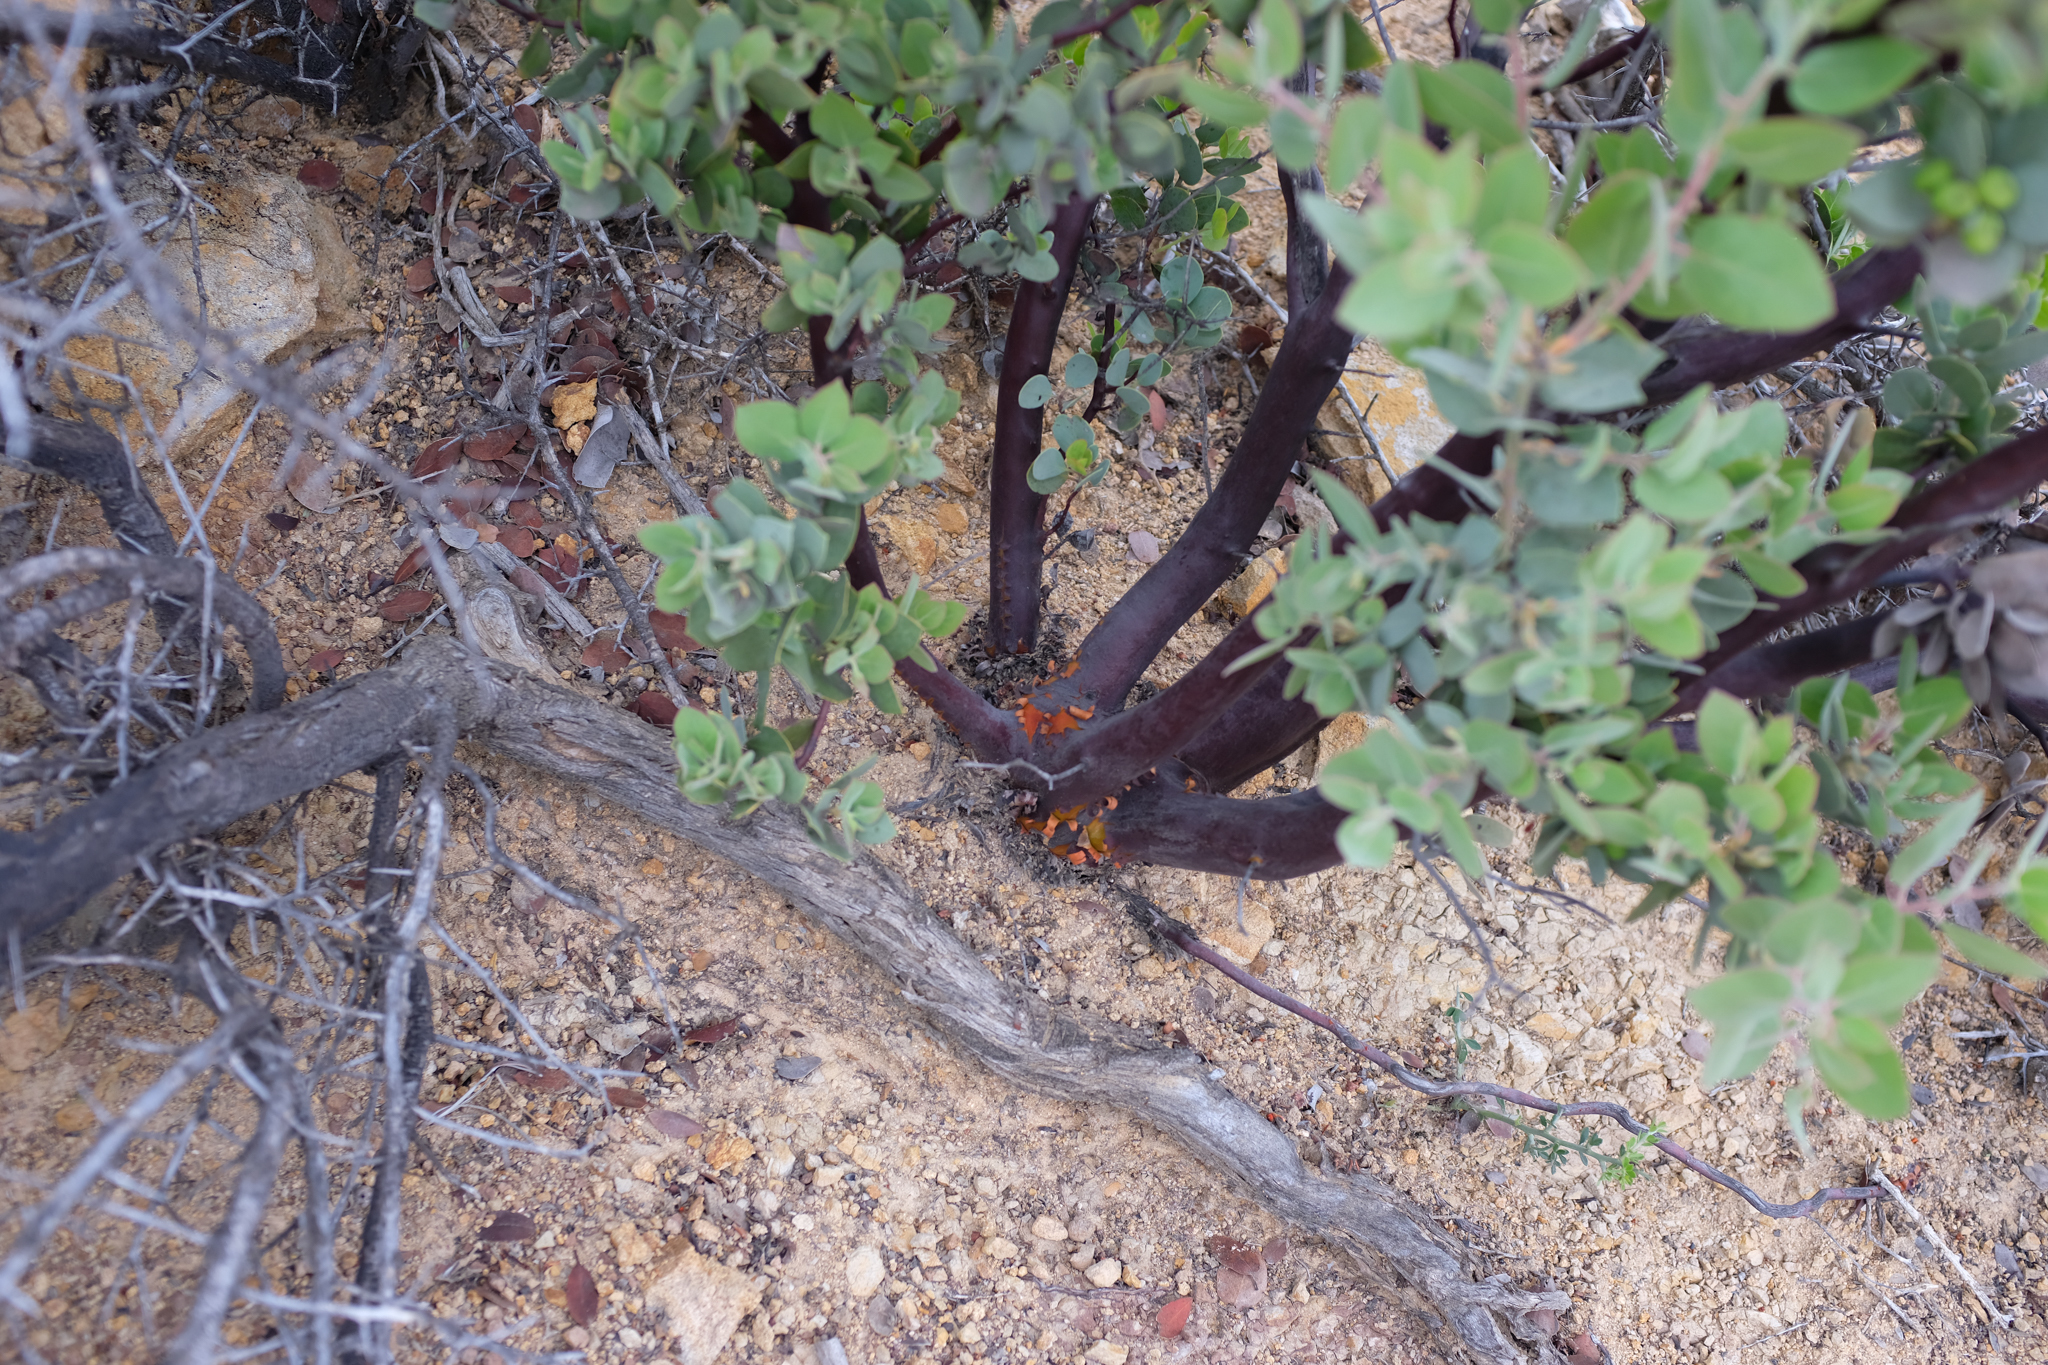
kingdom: Plantae
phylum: Tracheophyta
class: Magnoliopsida
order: Ericales
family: Ericaceae
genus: Arctostaphylos
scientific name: Arctostaphylos pilosula
